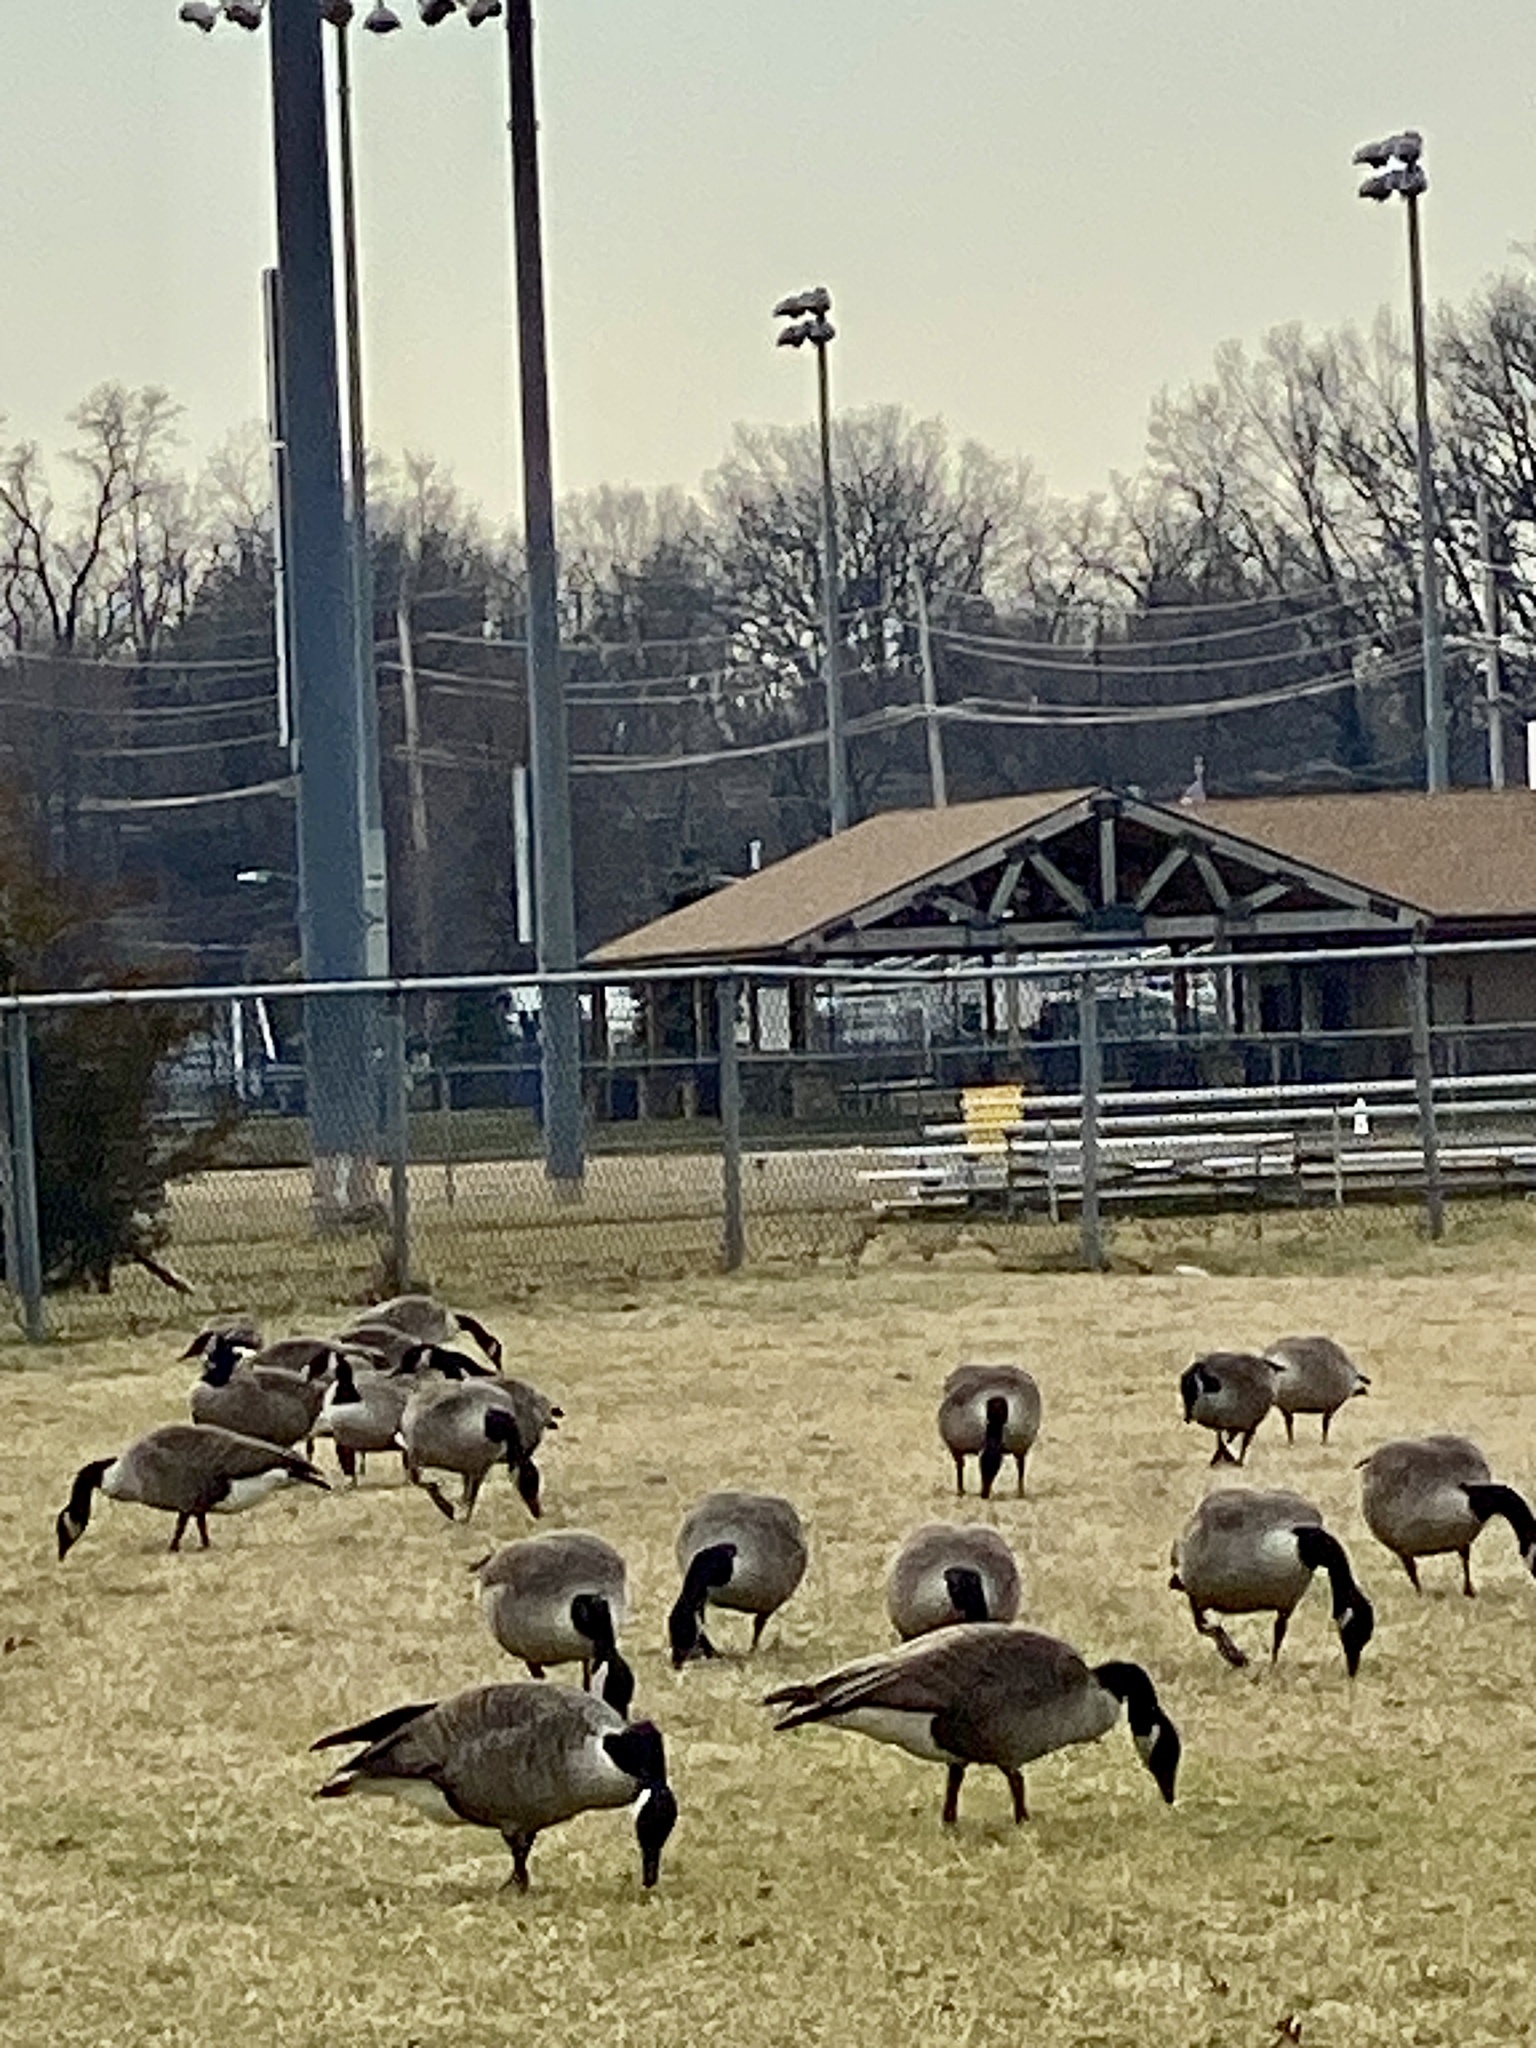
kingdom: Animalia
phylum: Chordata
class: Aves
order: Anseriformes
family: Anatidae
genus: Branta
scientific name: Branta canadensis
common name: Canada goose
